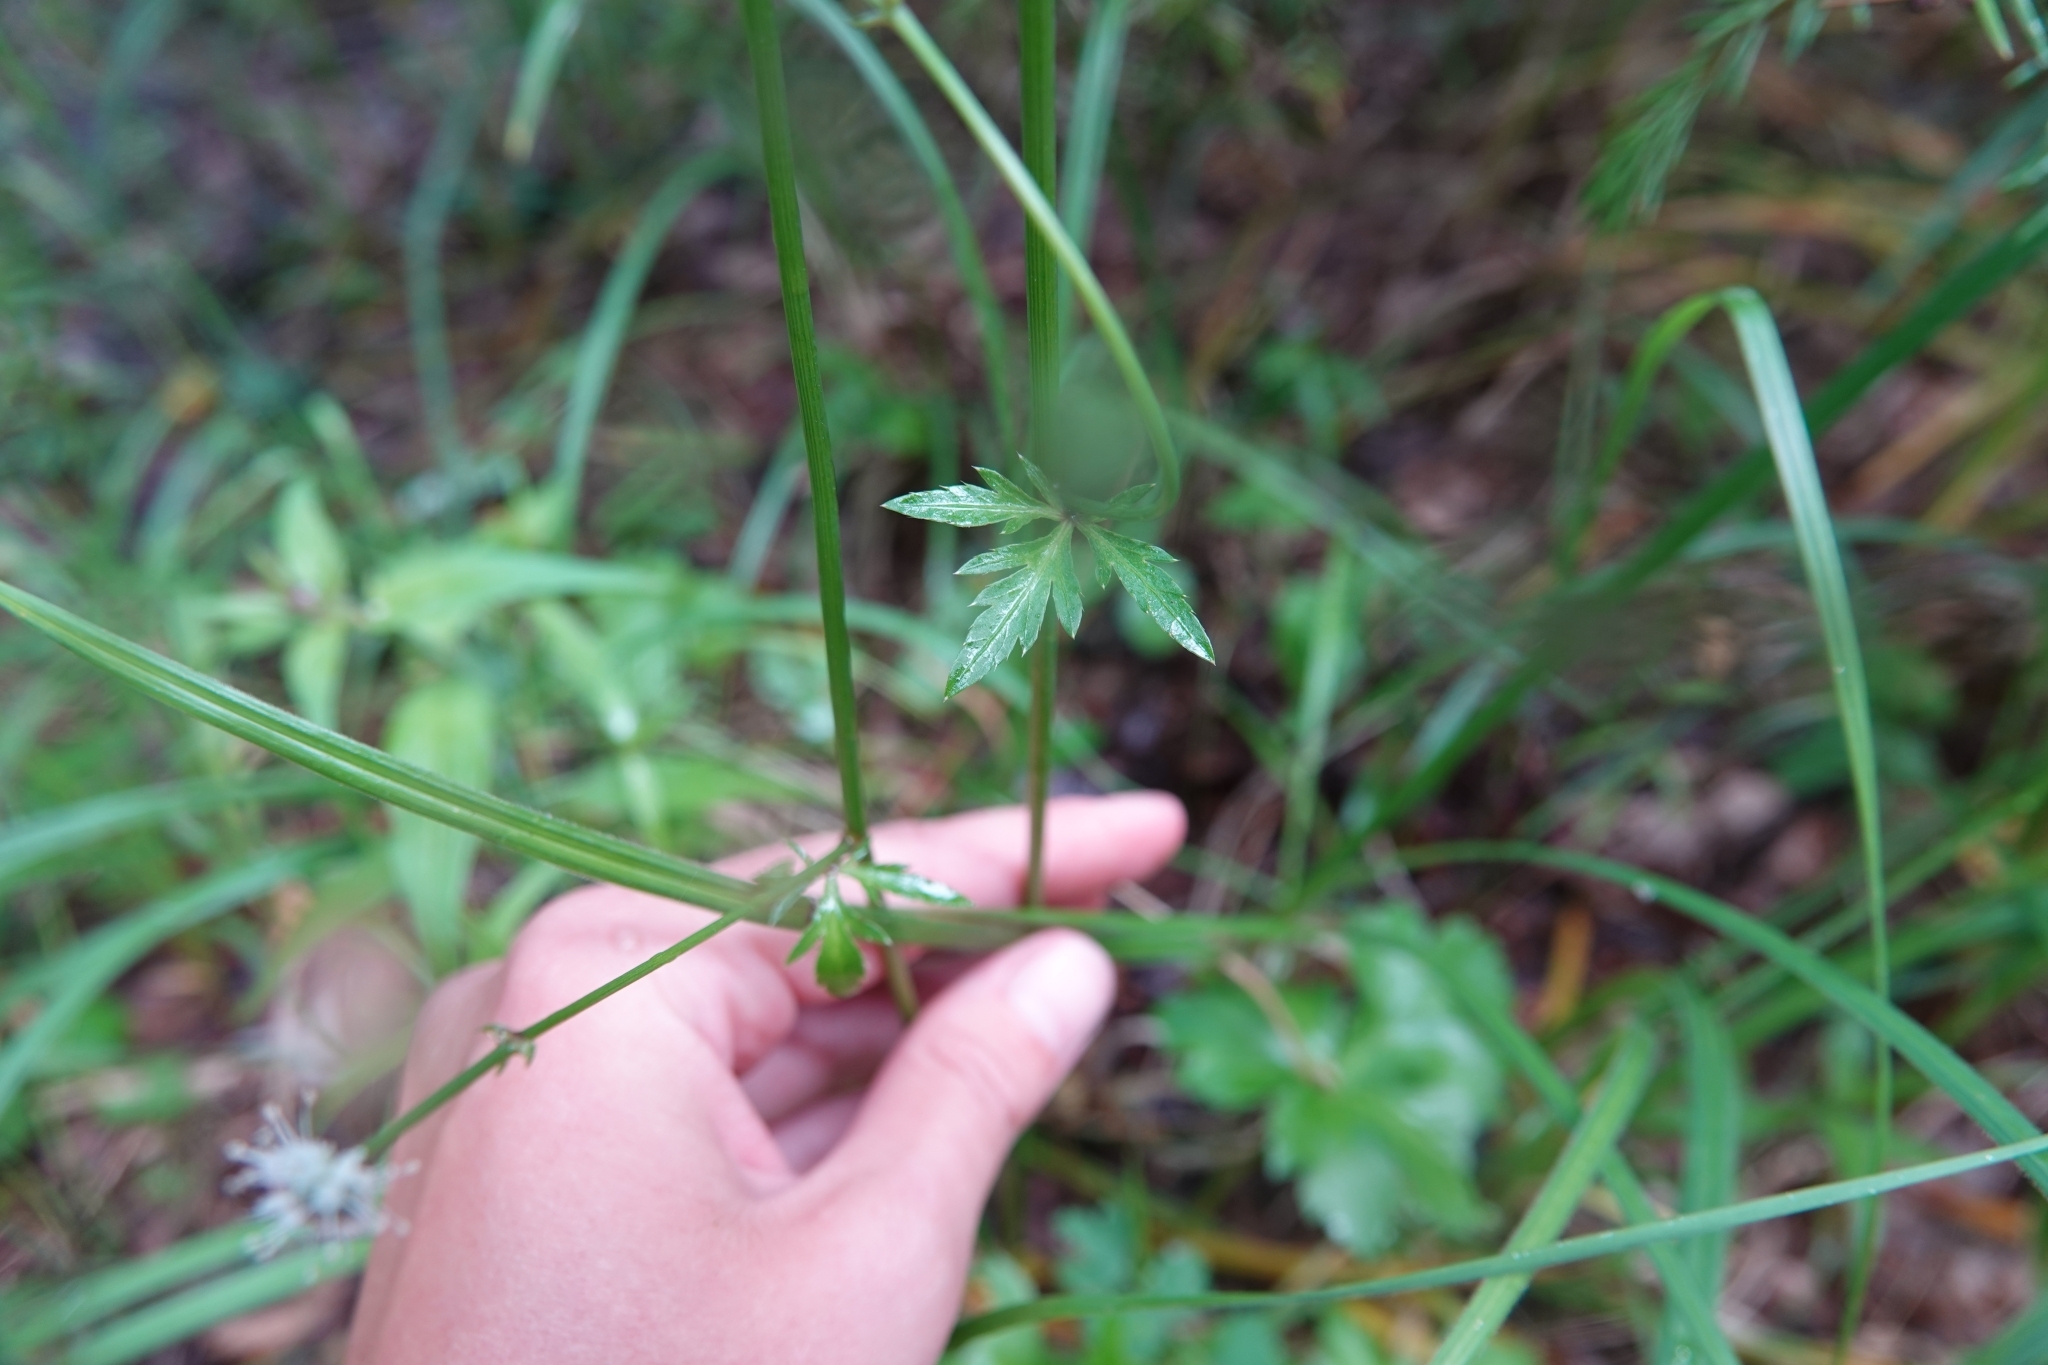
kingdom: Plantae
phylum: Tracheophyta
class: Magnoliopsida
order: Apiales
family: Apiaceae
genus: Sanicula
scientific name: Sanicula europaea
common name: Sanicle
